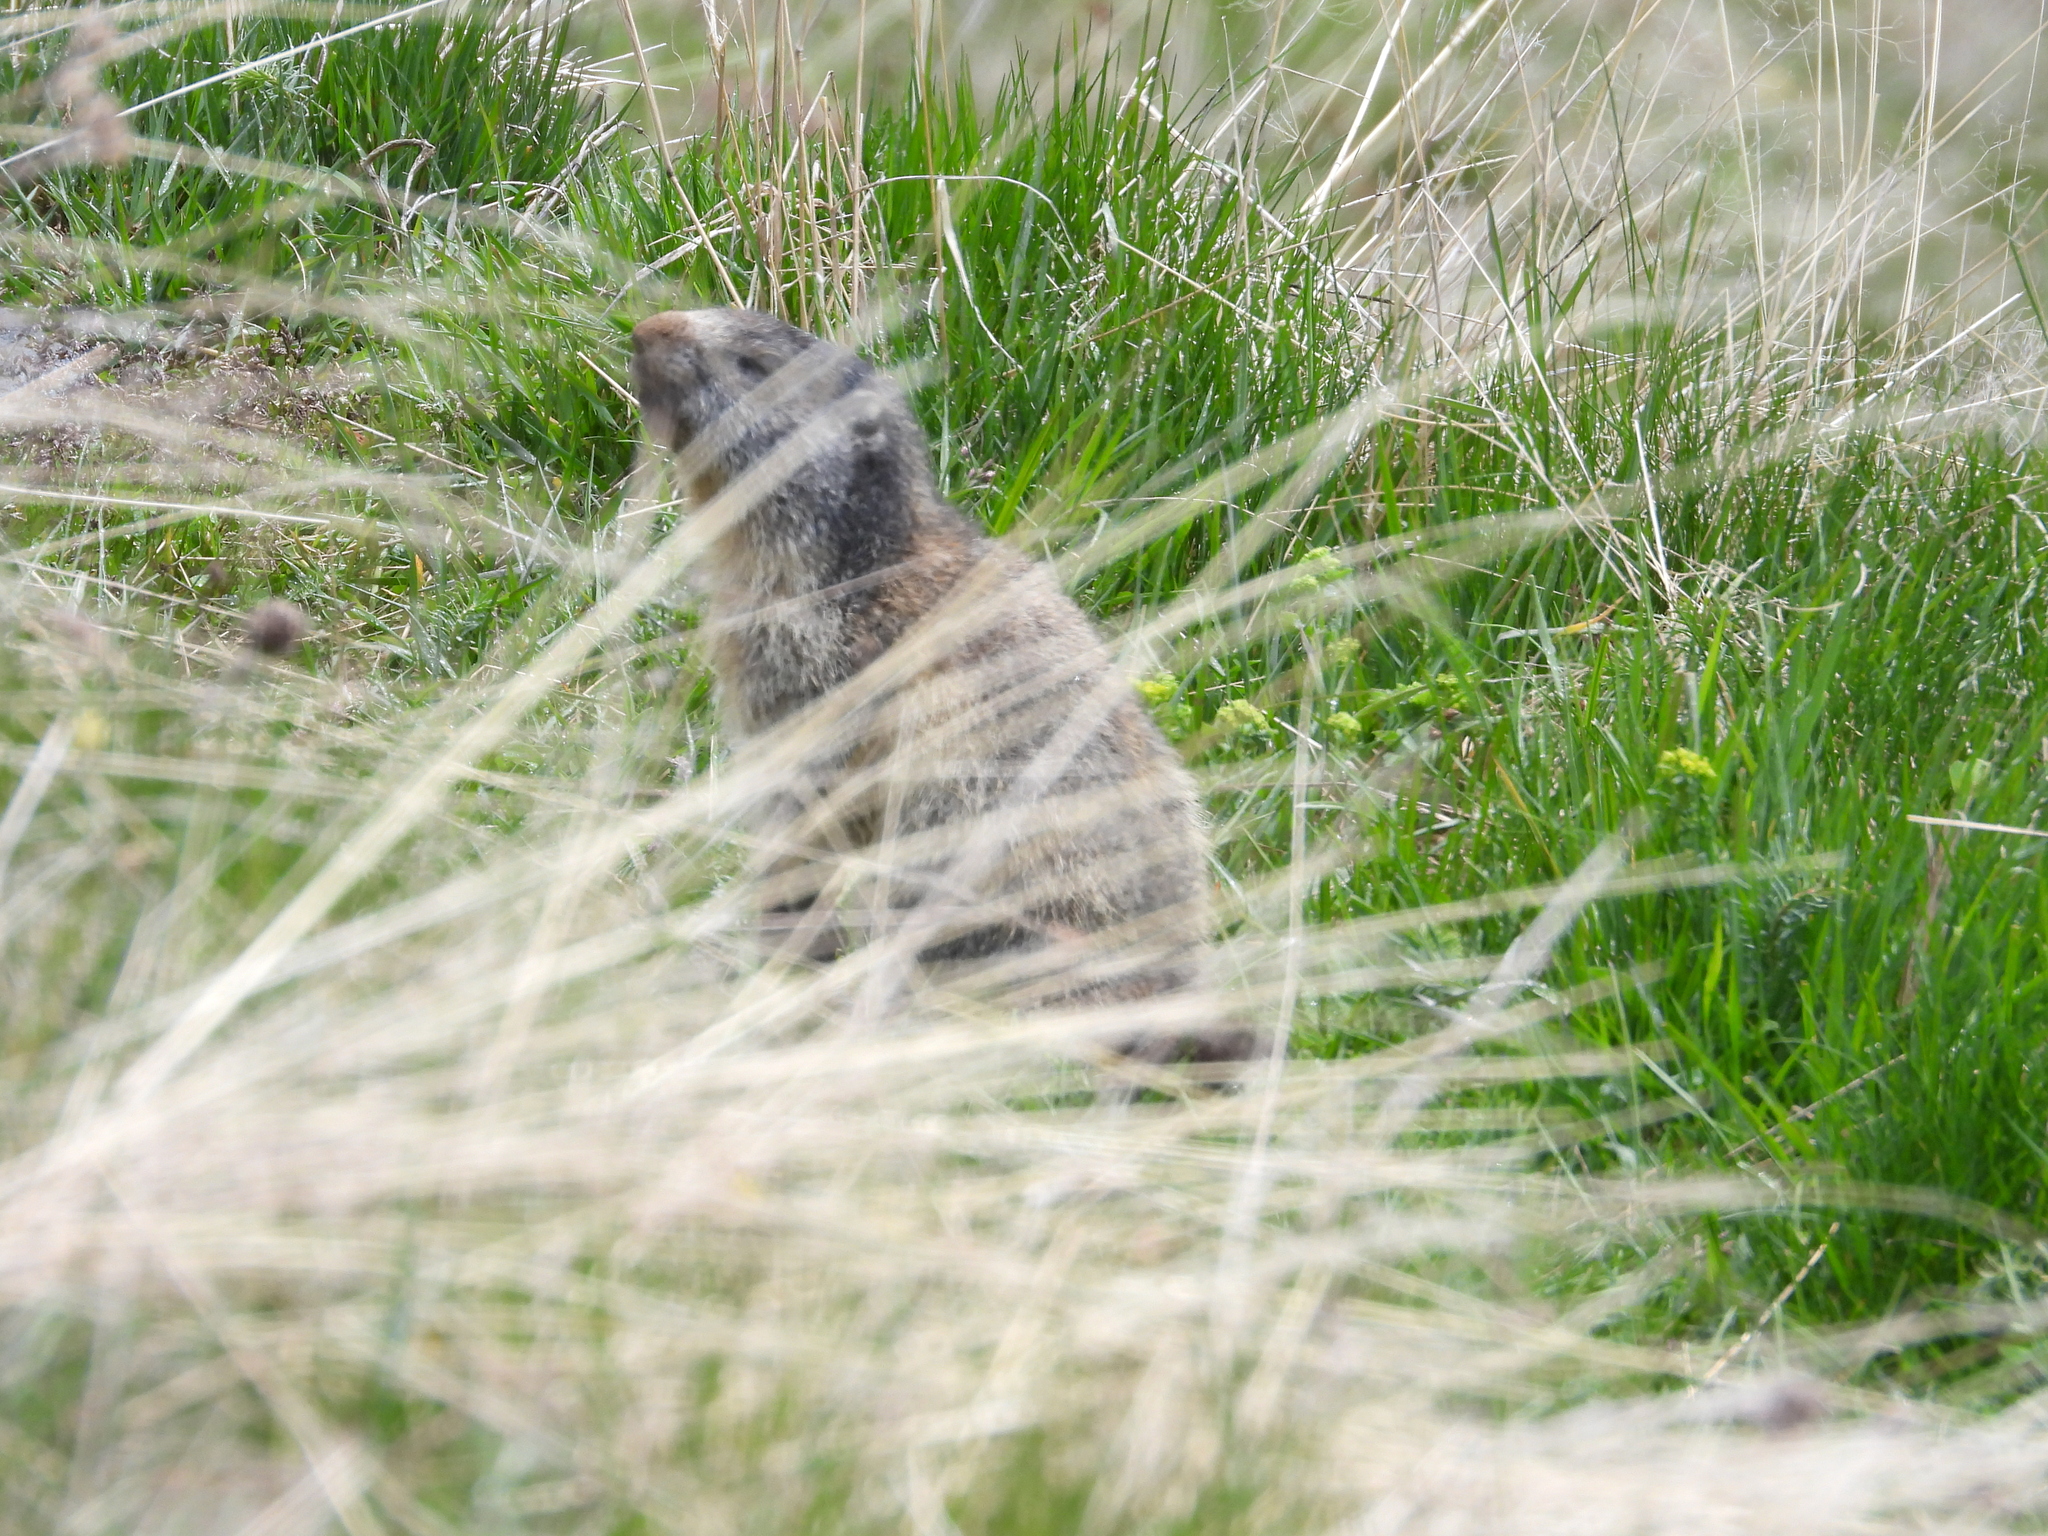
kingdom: Animalia
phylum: Chordata
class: Mammalia
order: Rodentia
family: Sciuridae
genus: Marmota
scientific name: Marmota marmota
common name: Alpine marmot
